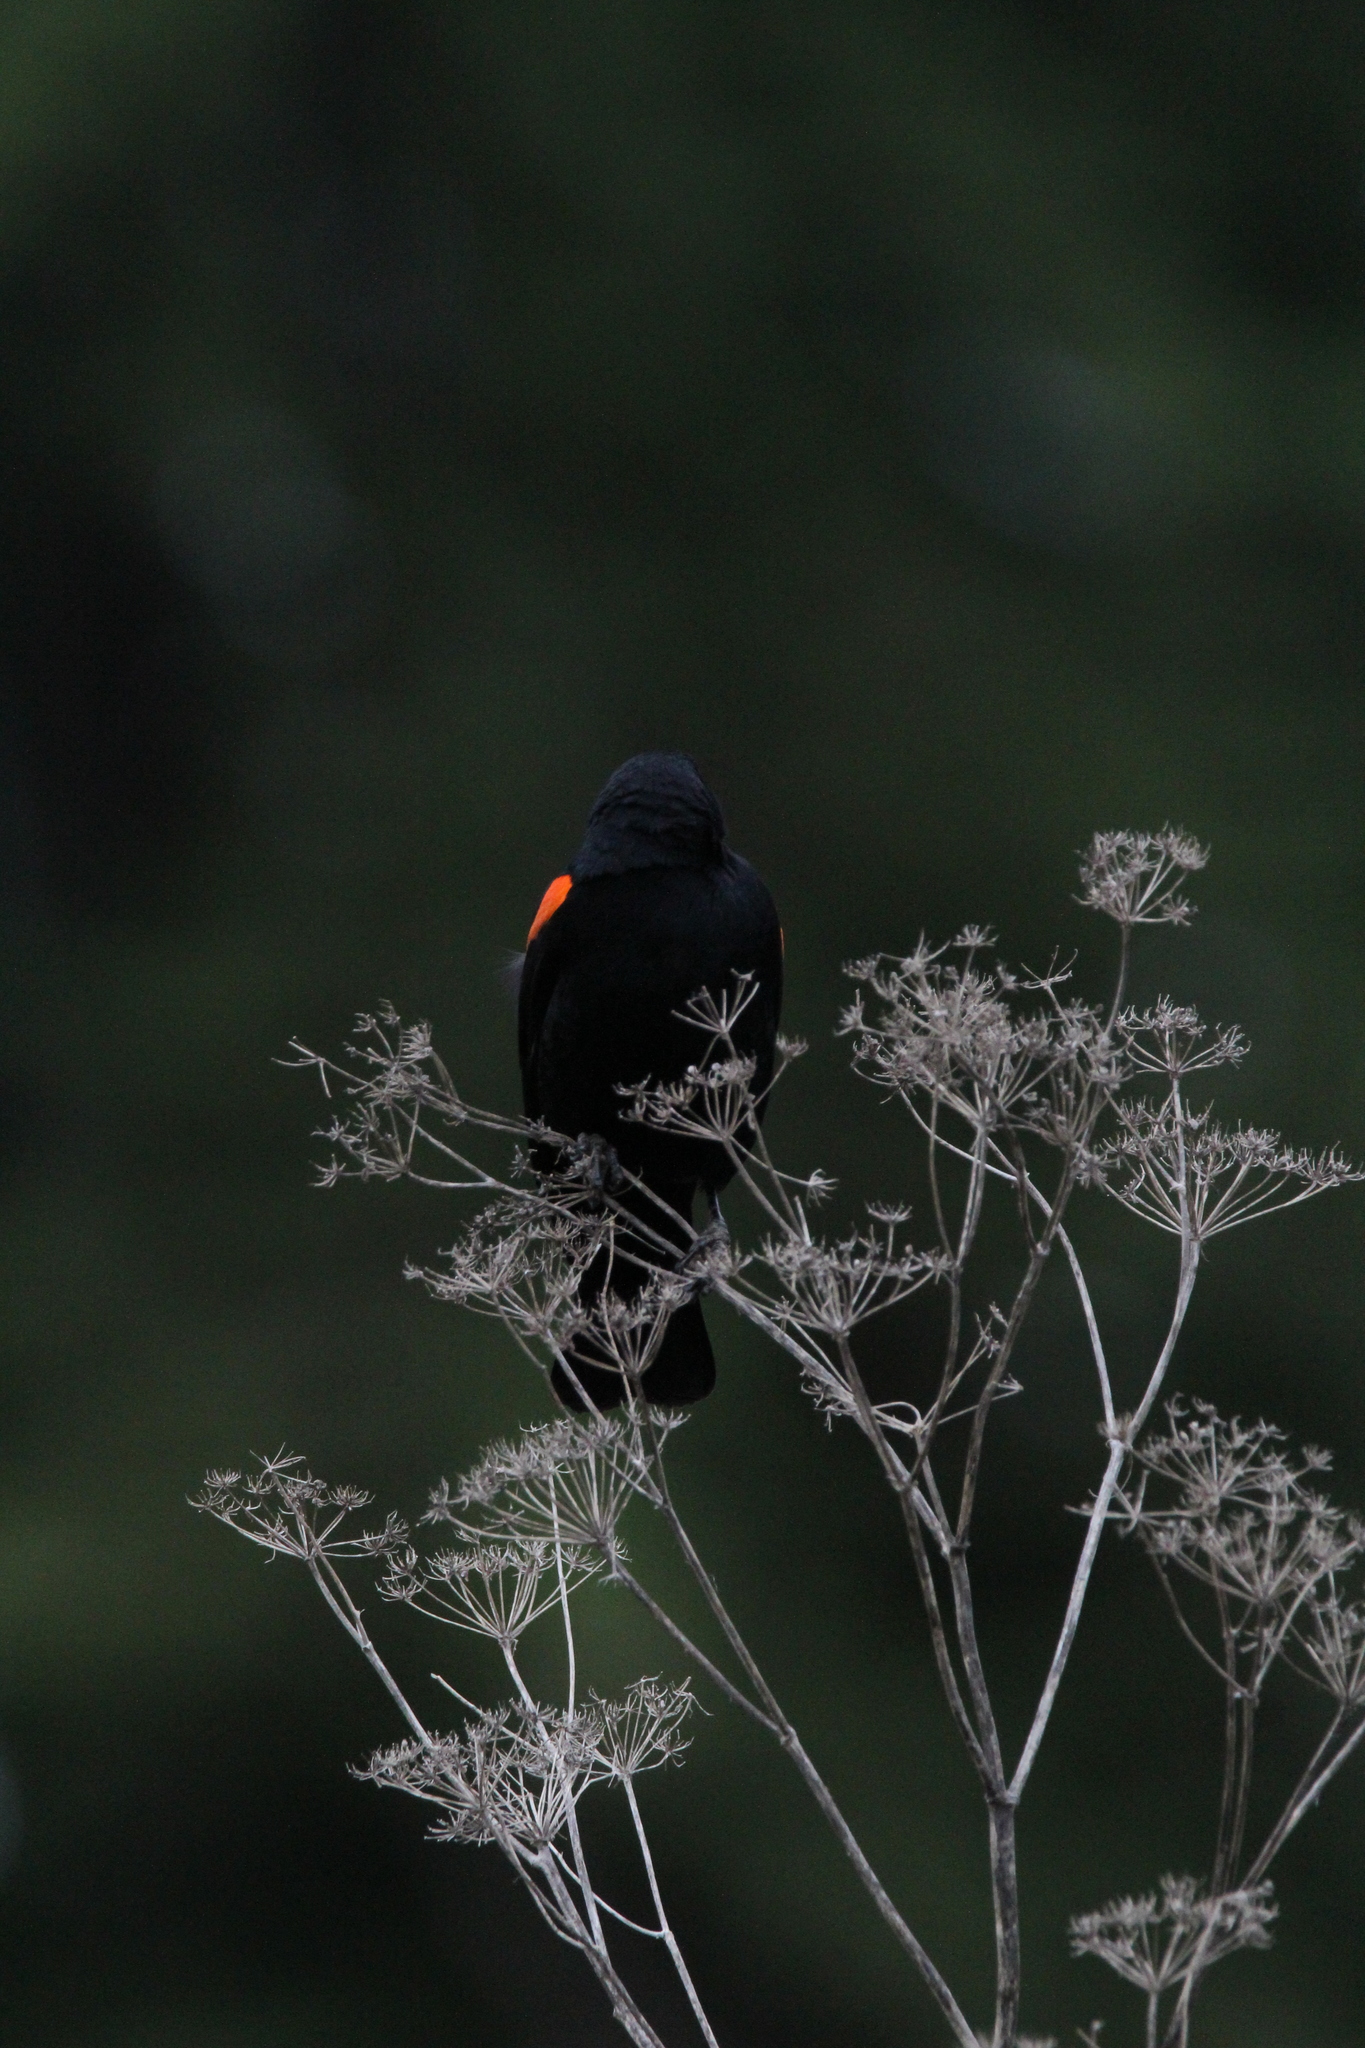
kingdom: Animalia
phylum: Chordata
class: Aves
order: Passeriformes
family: Icteridae
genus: Agelaius
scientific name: Agelaius phoeniceus
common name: Red-winged blackbird
